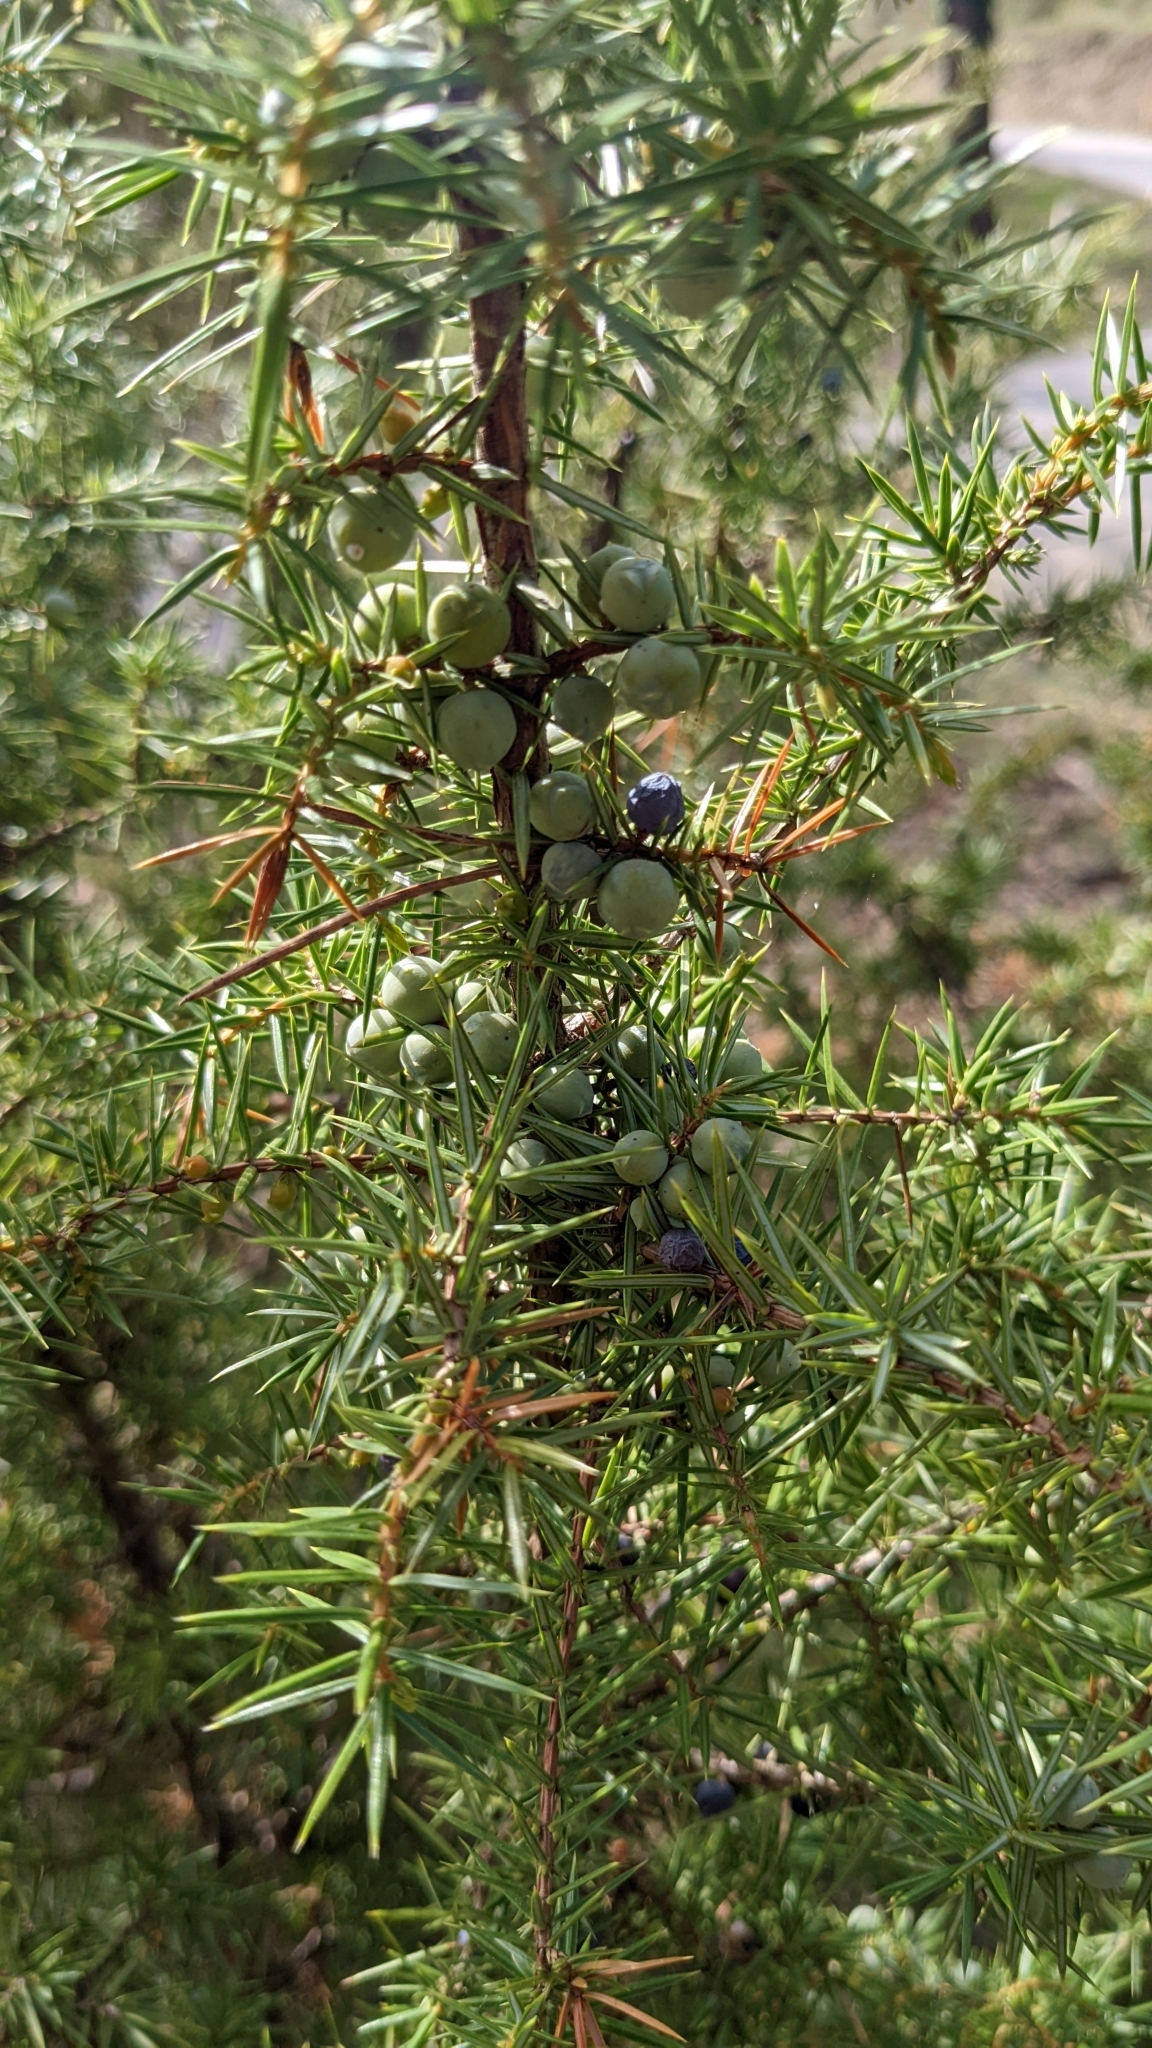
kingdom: Plantae
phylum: Tracheophyta
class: Pinopsida
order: Pinales
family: Cupressaceae
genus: Juniperus
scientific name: Juniperus communis
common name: Common juniper
